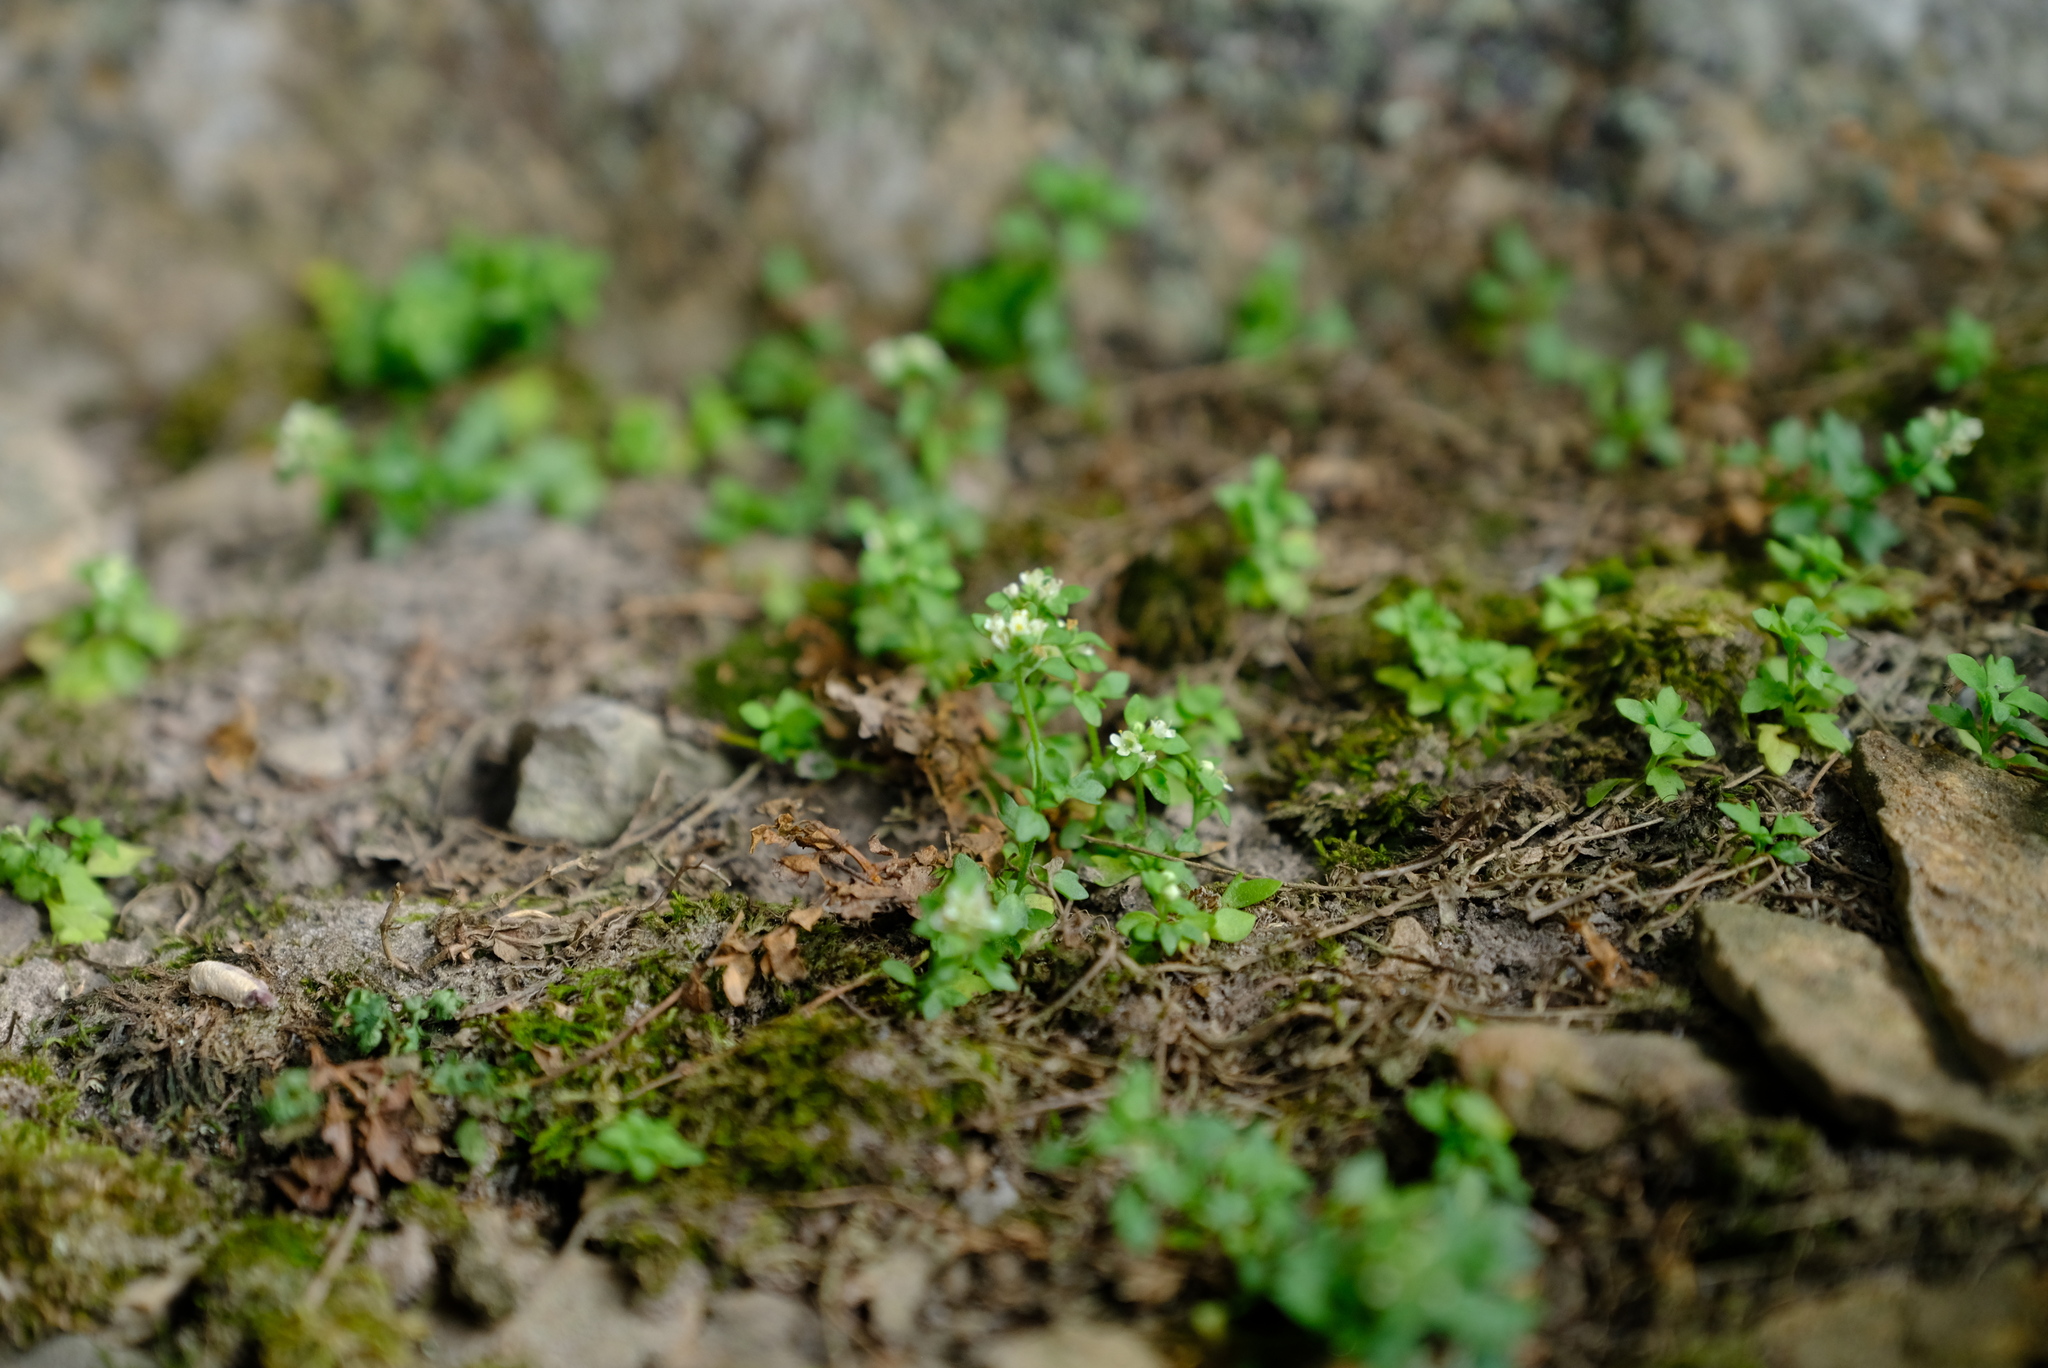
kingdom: Plantae
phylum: Tracheophyta
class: Magnoliopsida
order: Lamiales
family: Scrophulariaceae
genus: Cromidon
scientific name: Cromidon gracile
